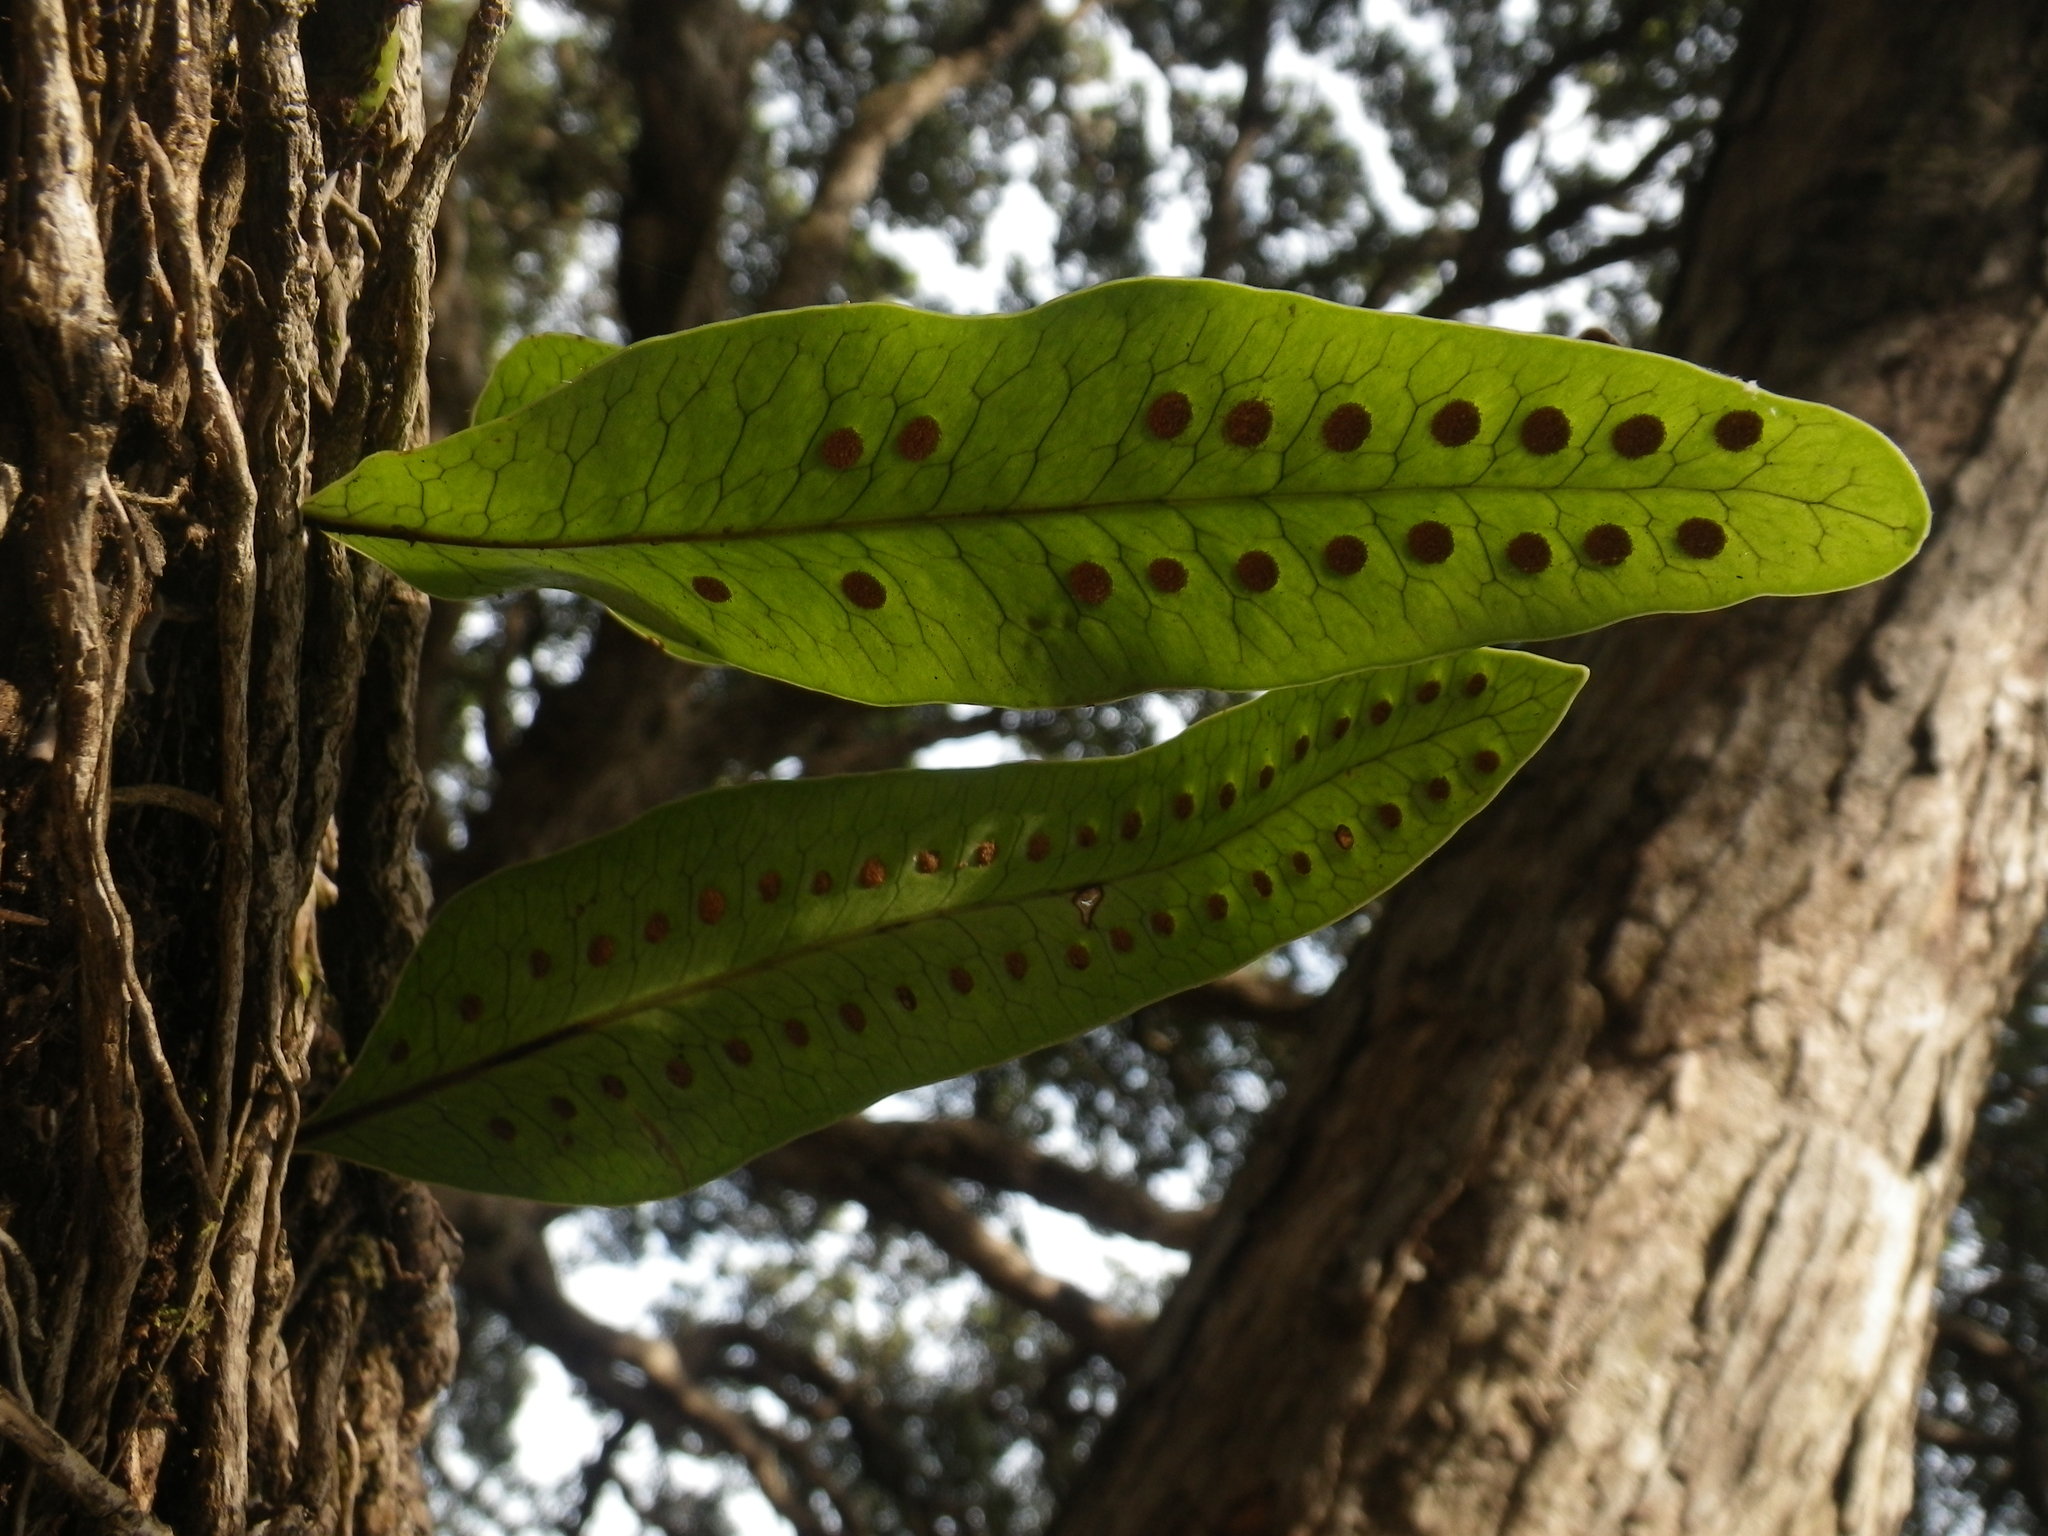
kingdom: Plantae
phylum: Tracheophyta
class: Polypodiopsida
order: Polypodiales
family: Polypodiaceae
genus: Lecanopteris
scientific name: Lecanopteris pustulata
